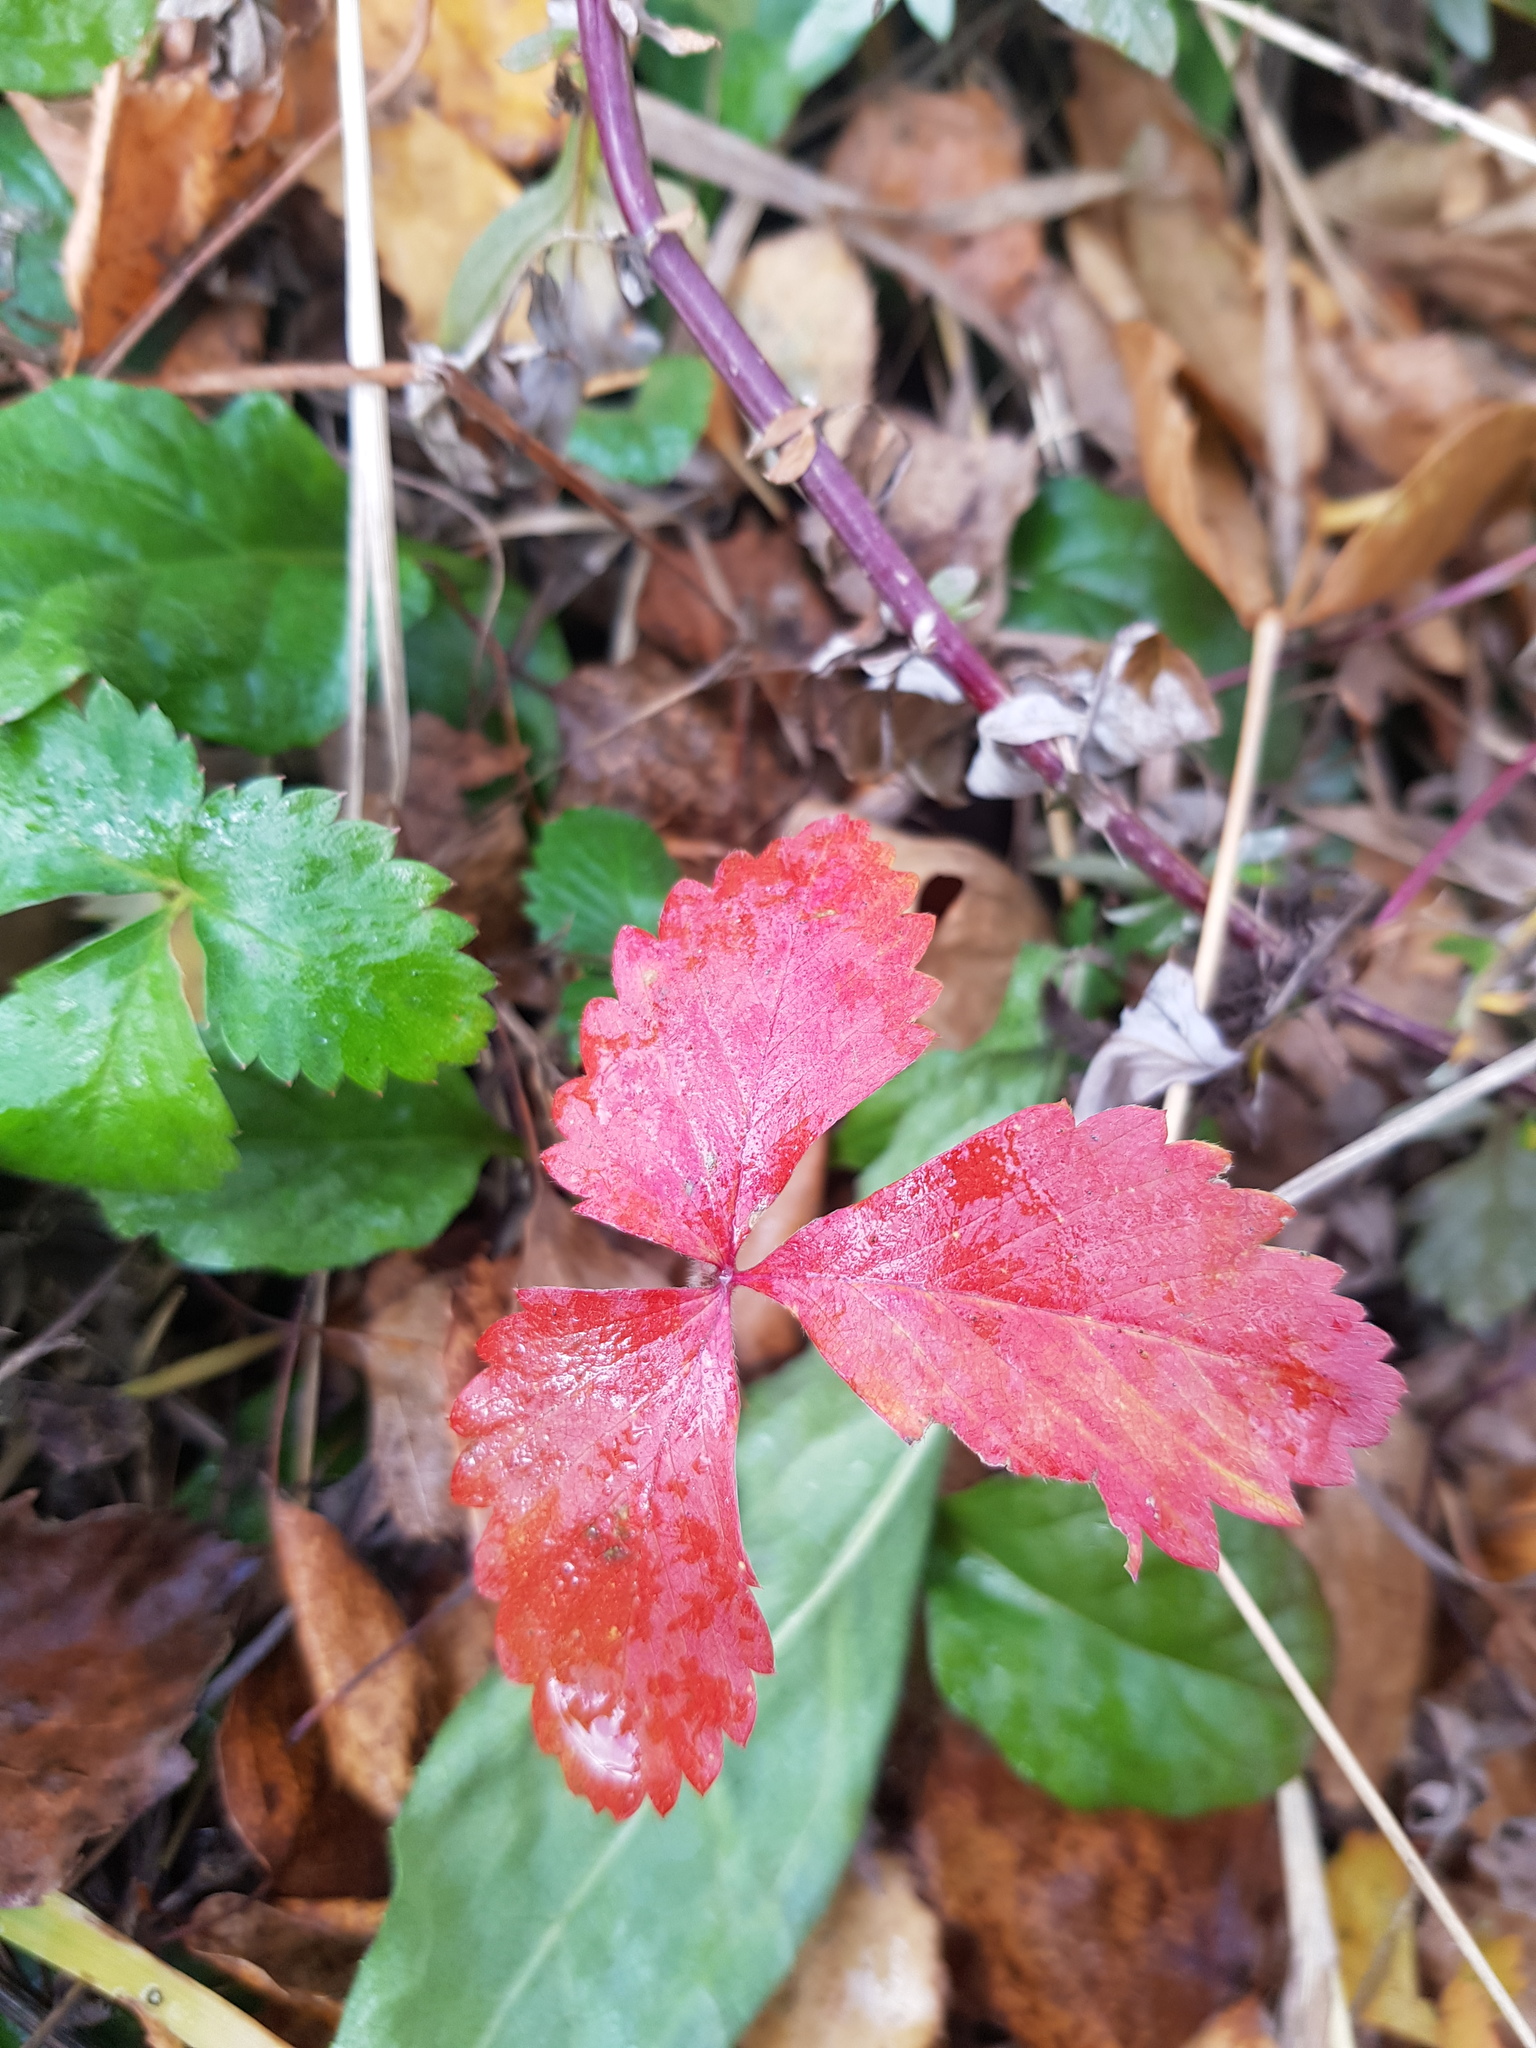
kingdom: Plantae
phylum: Tracheophyta
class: Magnoliopsida
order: Rosales
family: Rosaceae
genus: Fragaria
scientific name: Fragaria viridis
